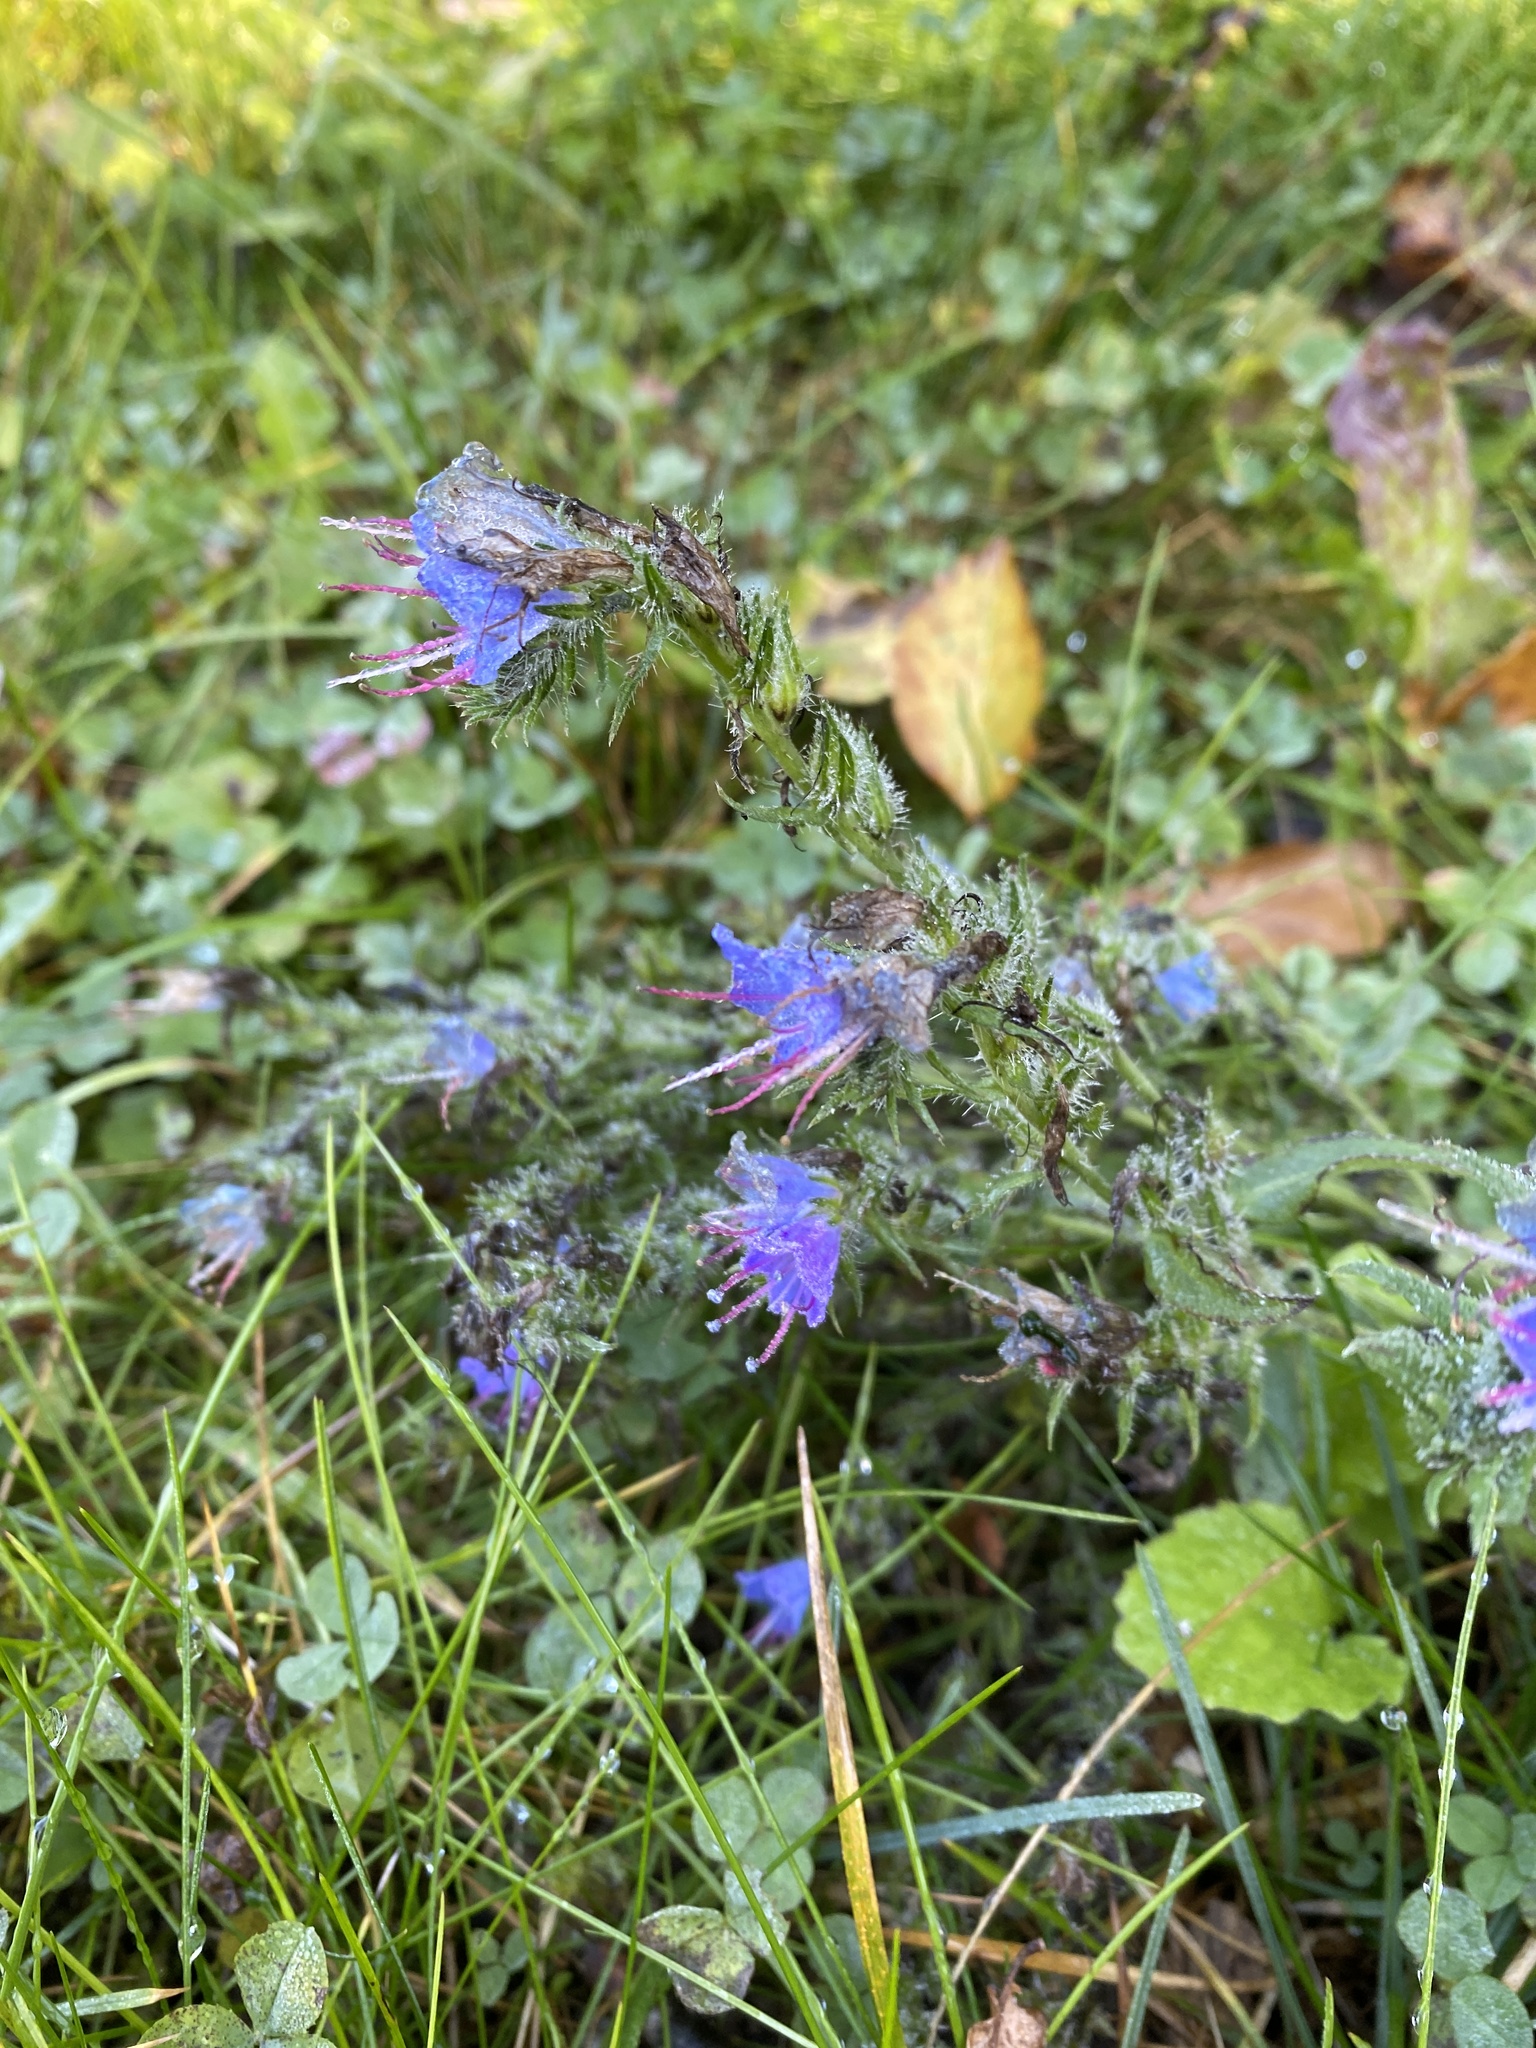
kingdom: Plantae
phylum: Tracheophyta
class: Magnoliopsida
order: Boraginales
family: Boraginaceae
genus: Echium
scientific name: Echium vulgare
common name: Common viper's bugloss
